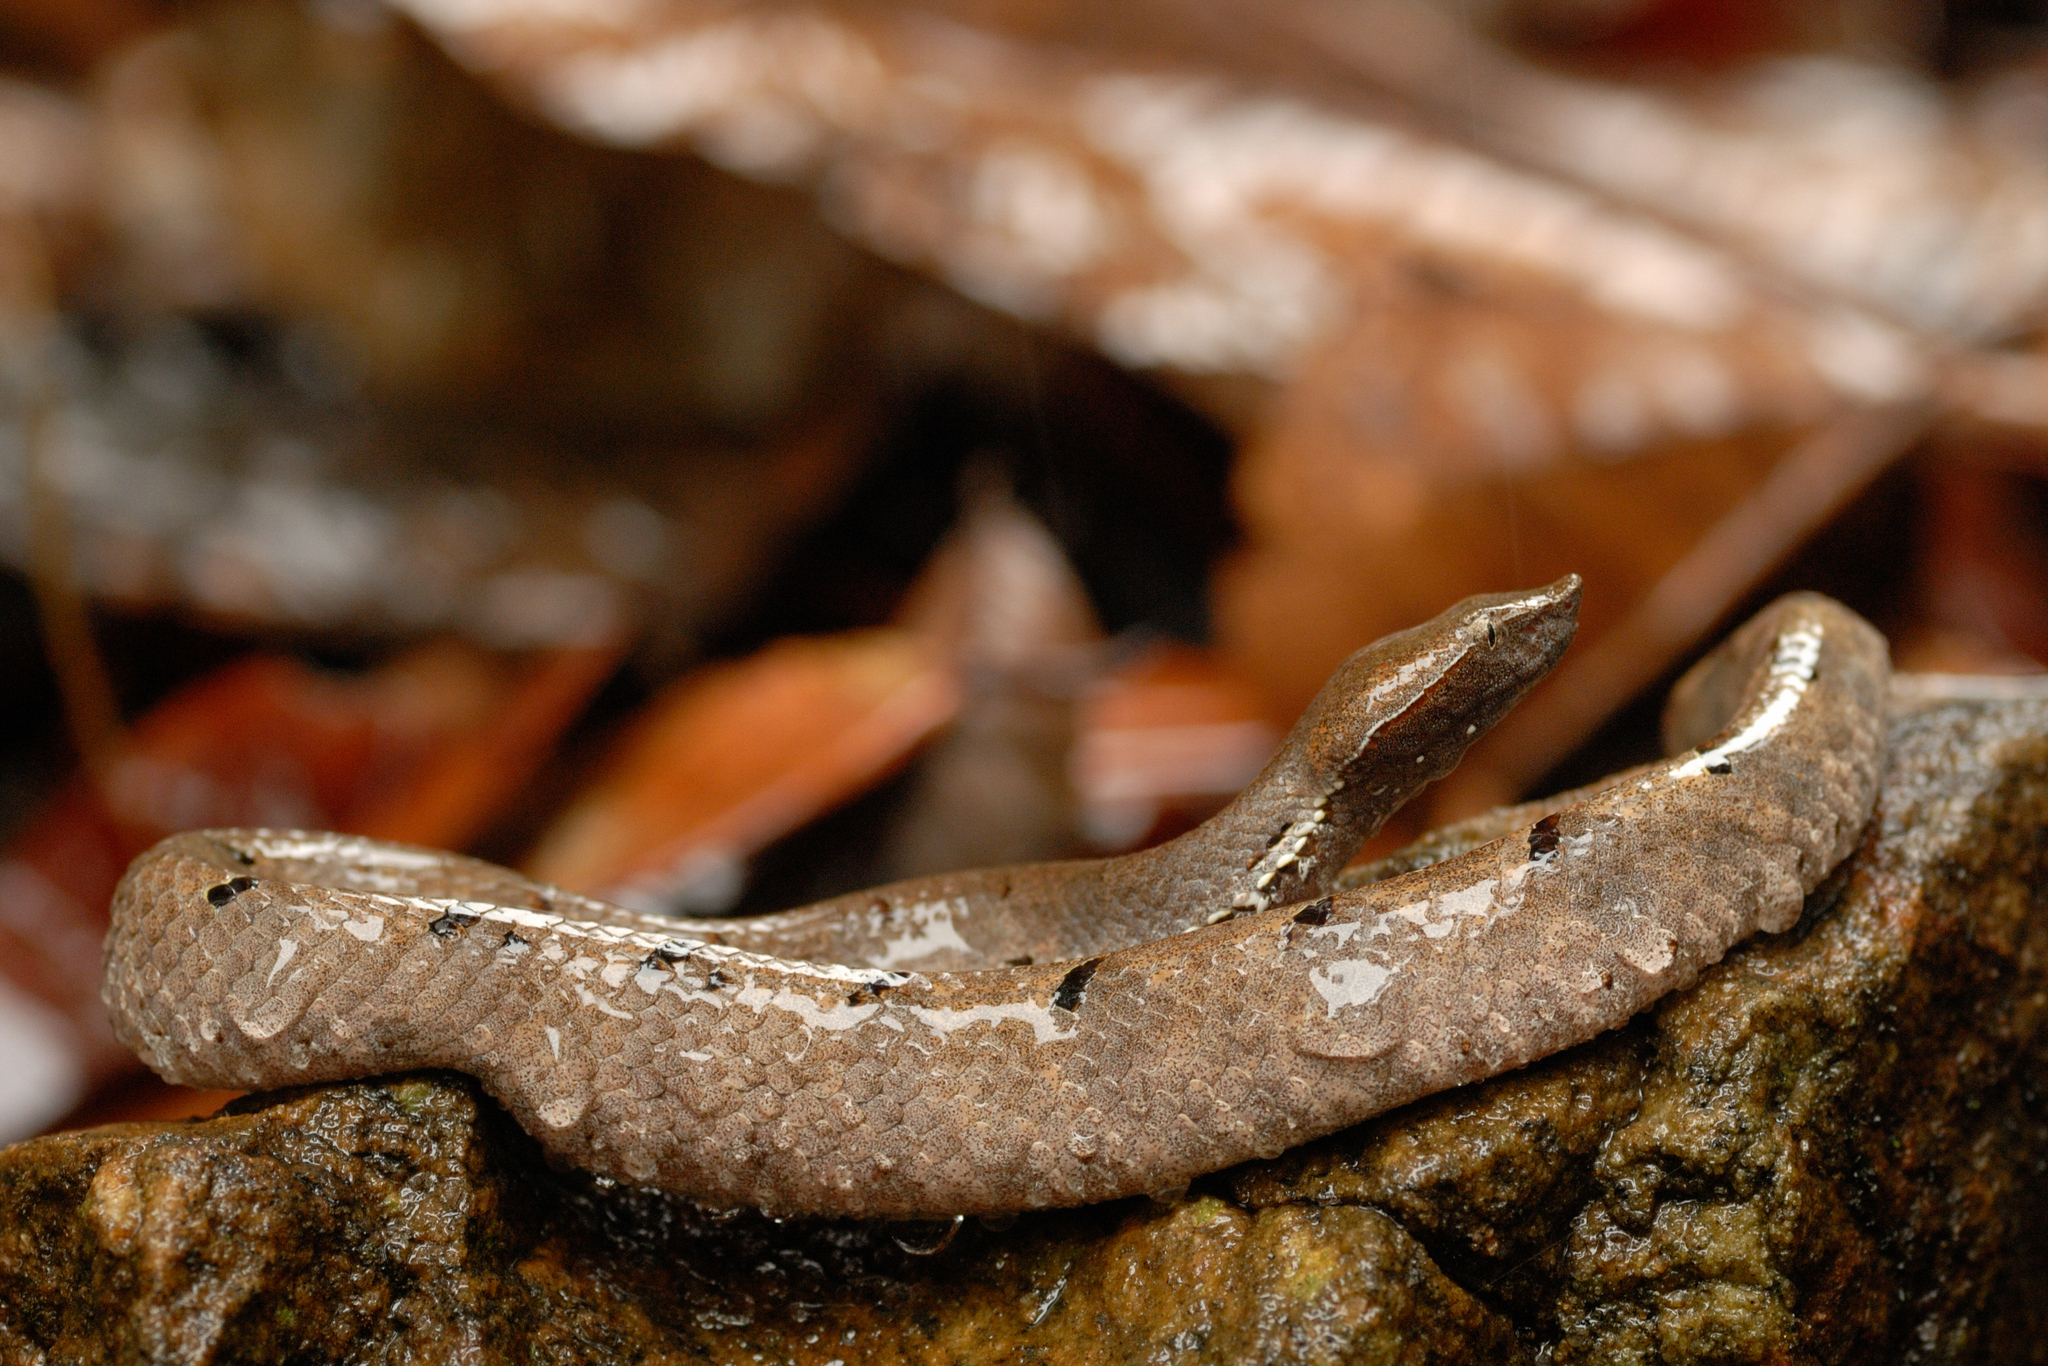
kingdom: Animalia
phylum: Chordata
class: Squamata
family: Viperidae
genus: Hypnale
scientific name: Hypnale hypnale
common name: Hump-nosed moccasin
